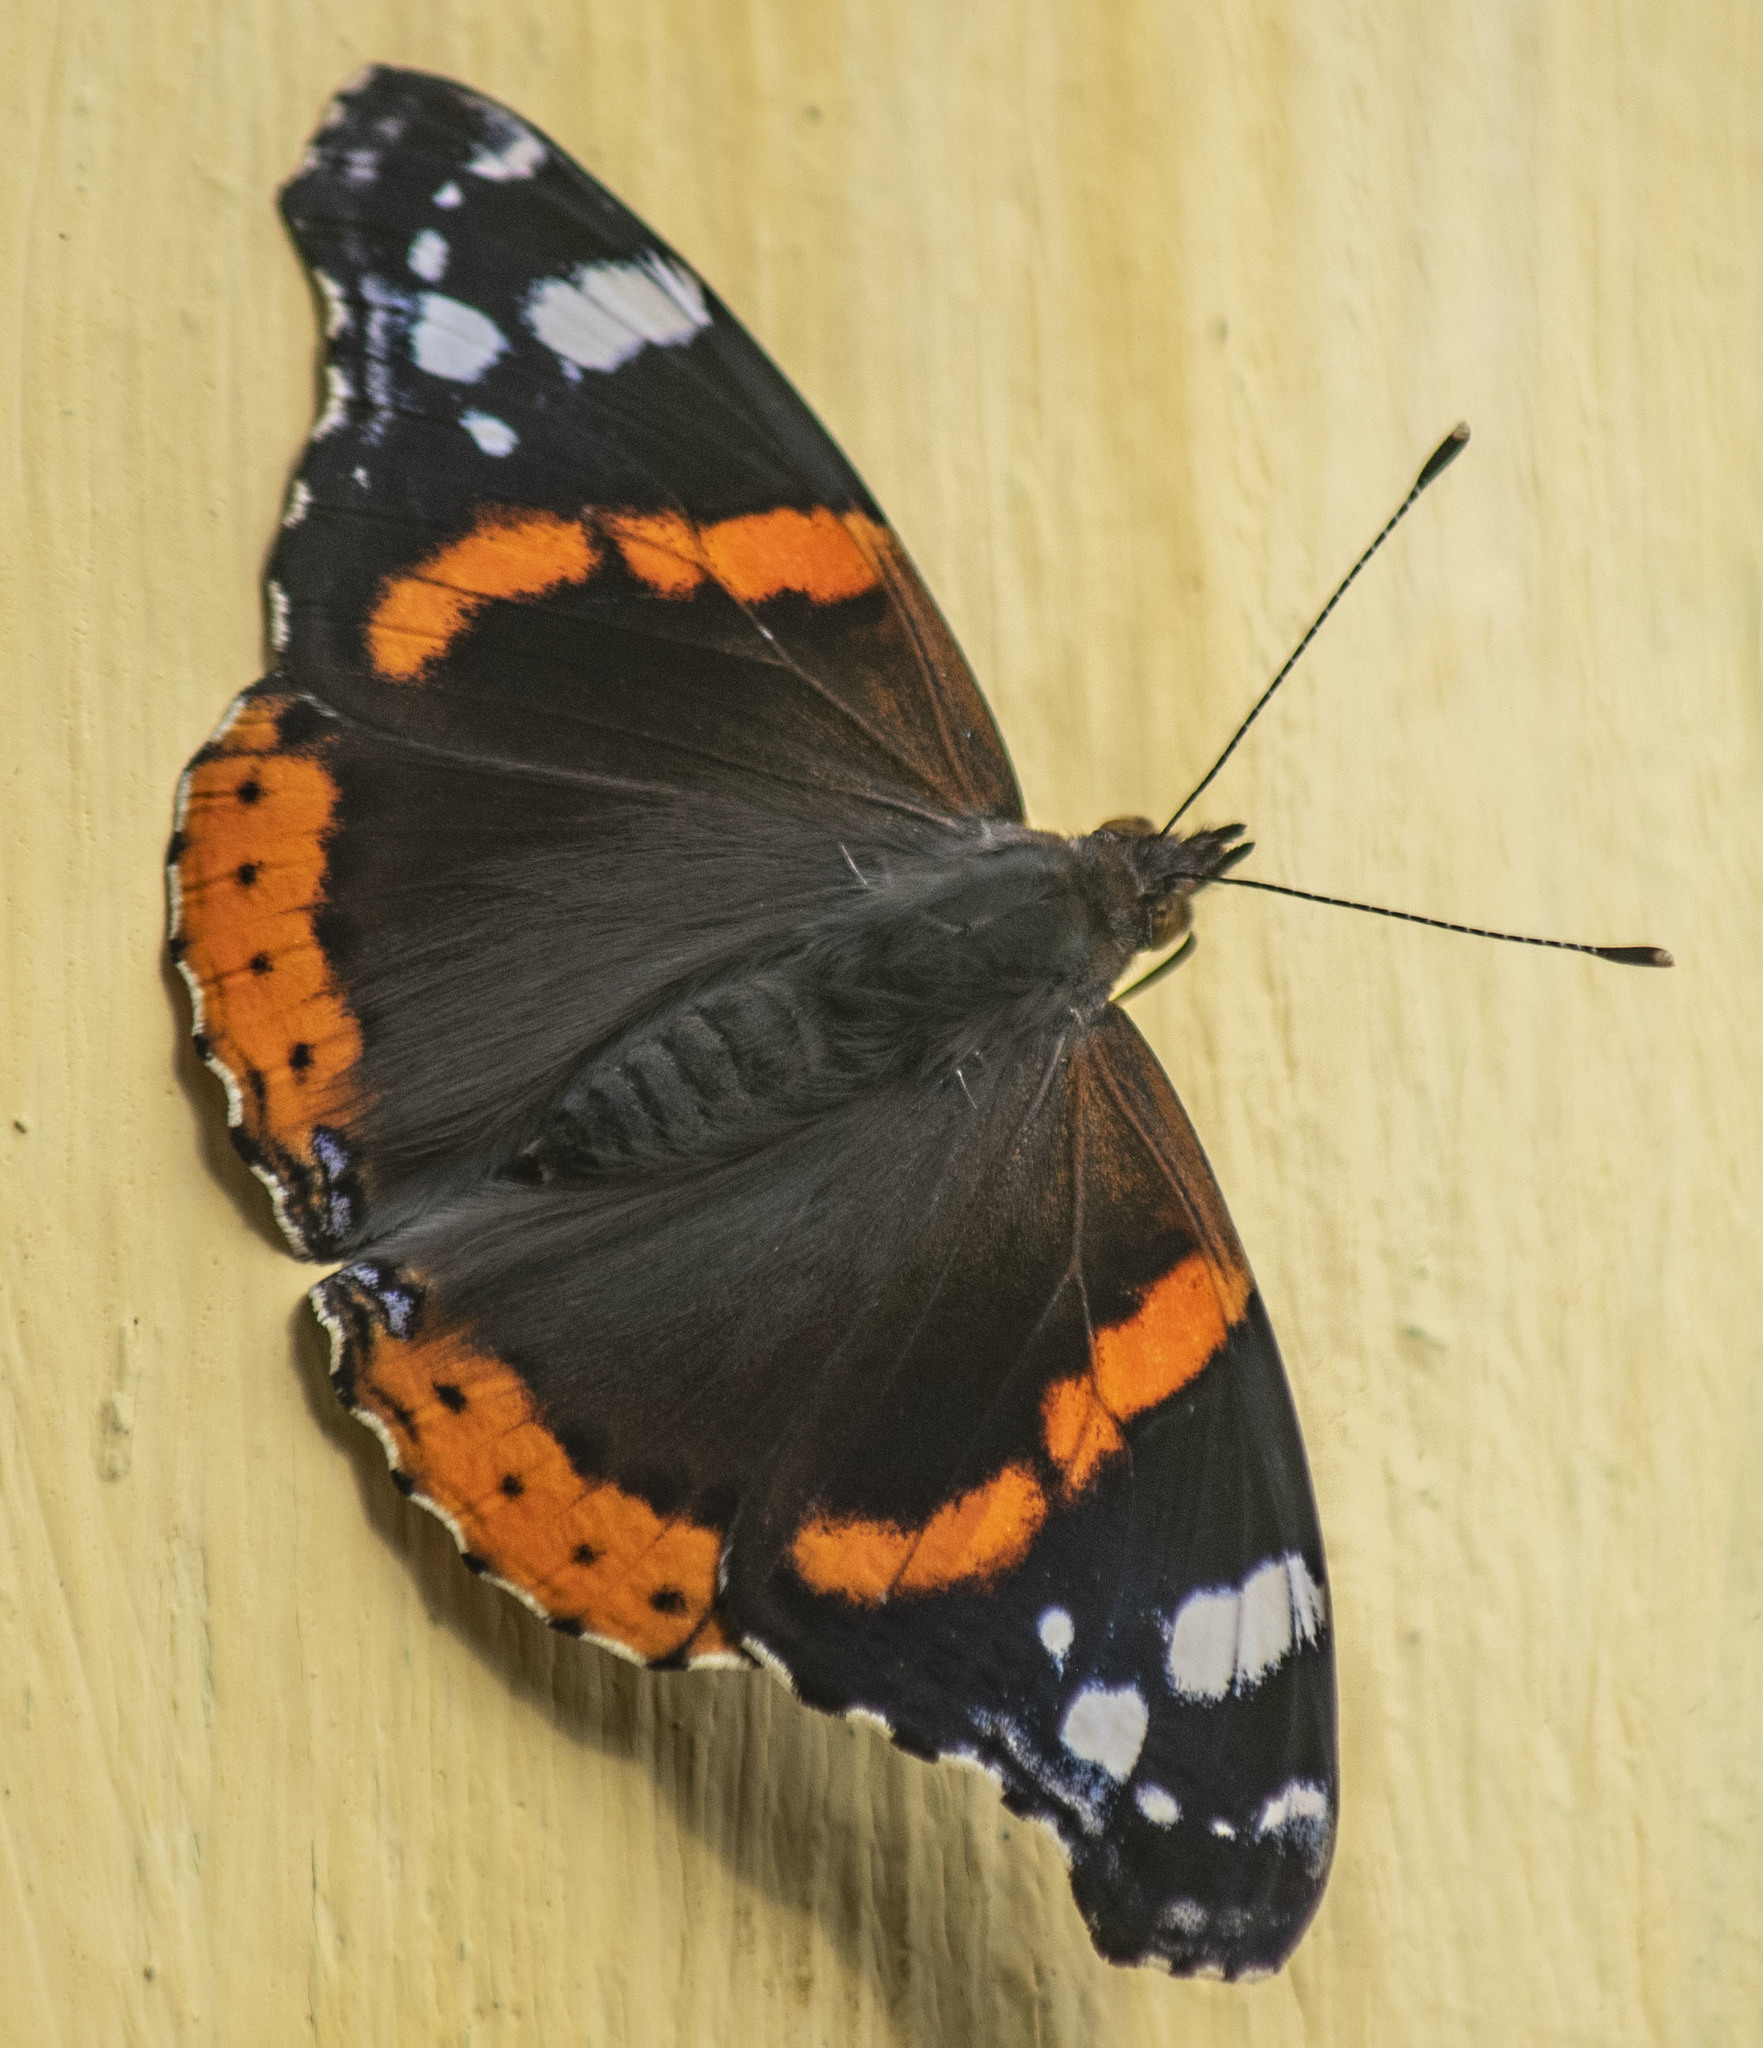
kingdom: Animalia
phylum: Arthropoda
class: Insecta
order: Lepidoptera
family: Nymphalidae
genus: Vanessa
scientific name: Vanessa atalanta
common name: Red admiral
